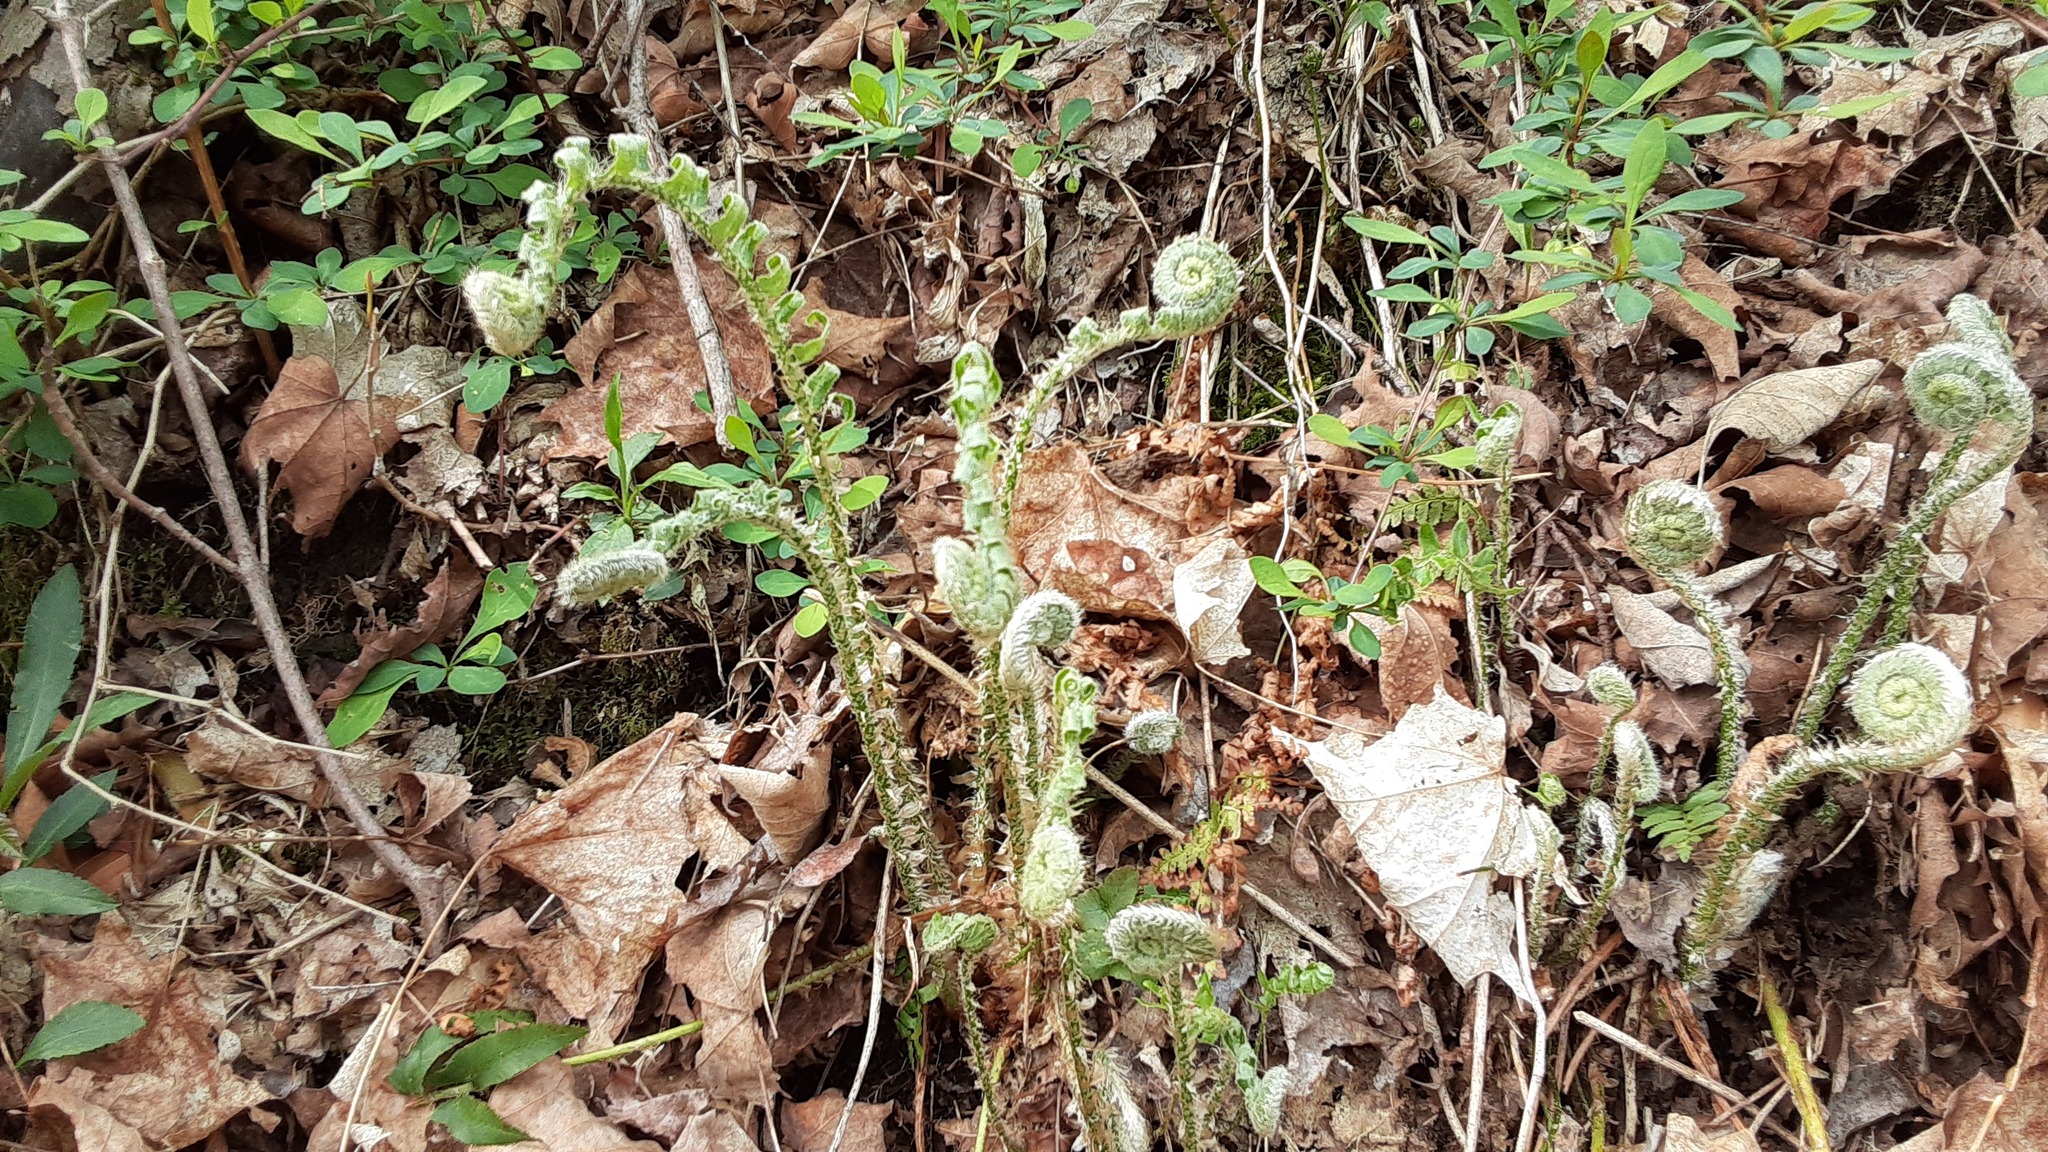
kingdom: Plantae
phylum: Tracheophyta
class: Polypodiopsida
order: Polypodiales
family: Dryopteridaceae
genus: Polystichum
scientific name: Polystichum acrostichoides
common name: Christmas fern
